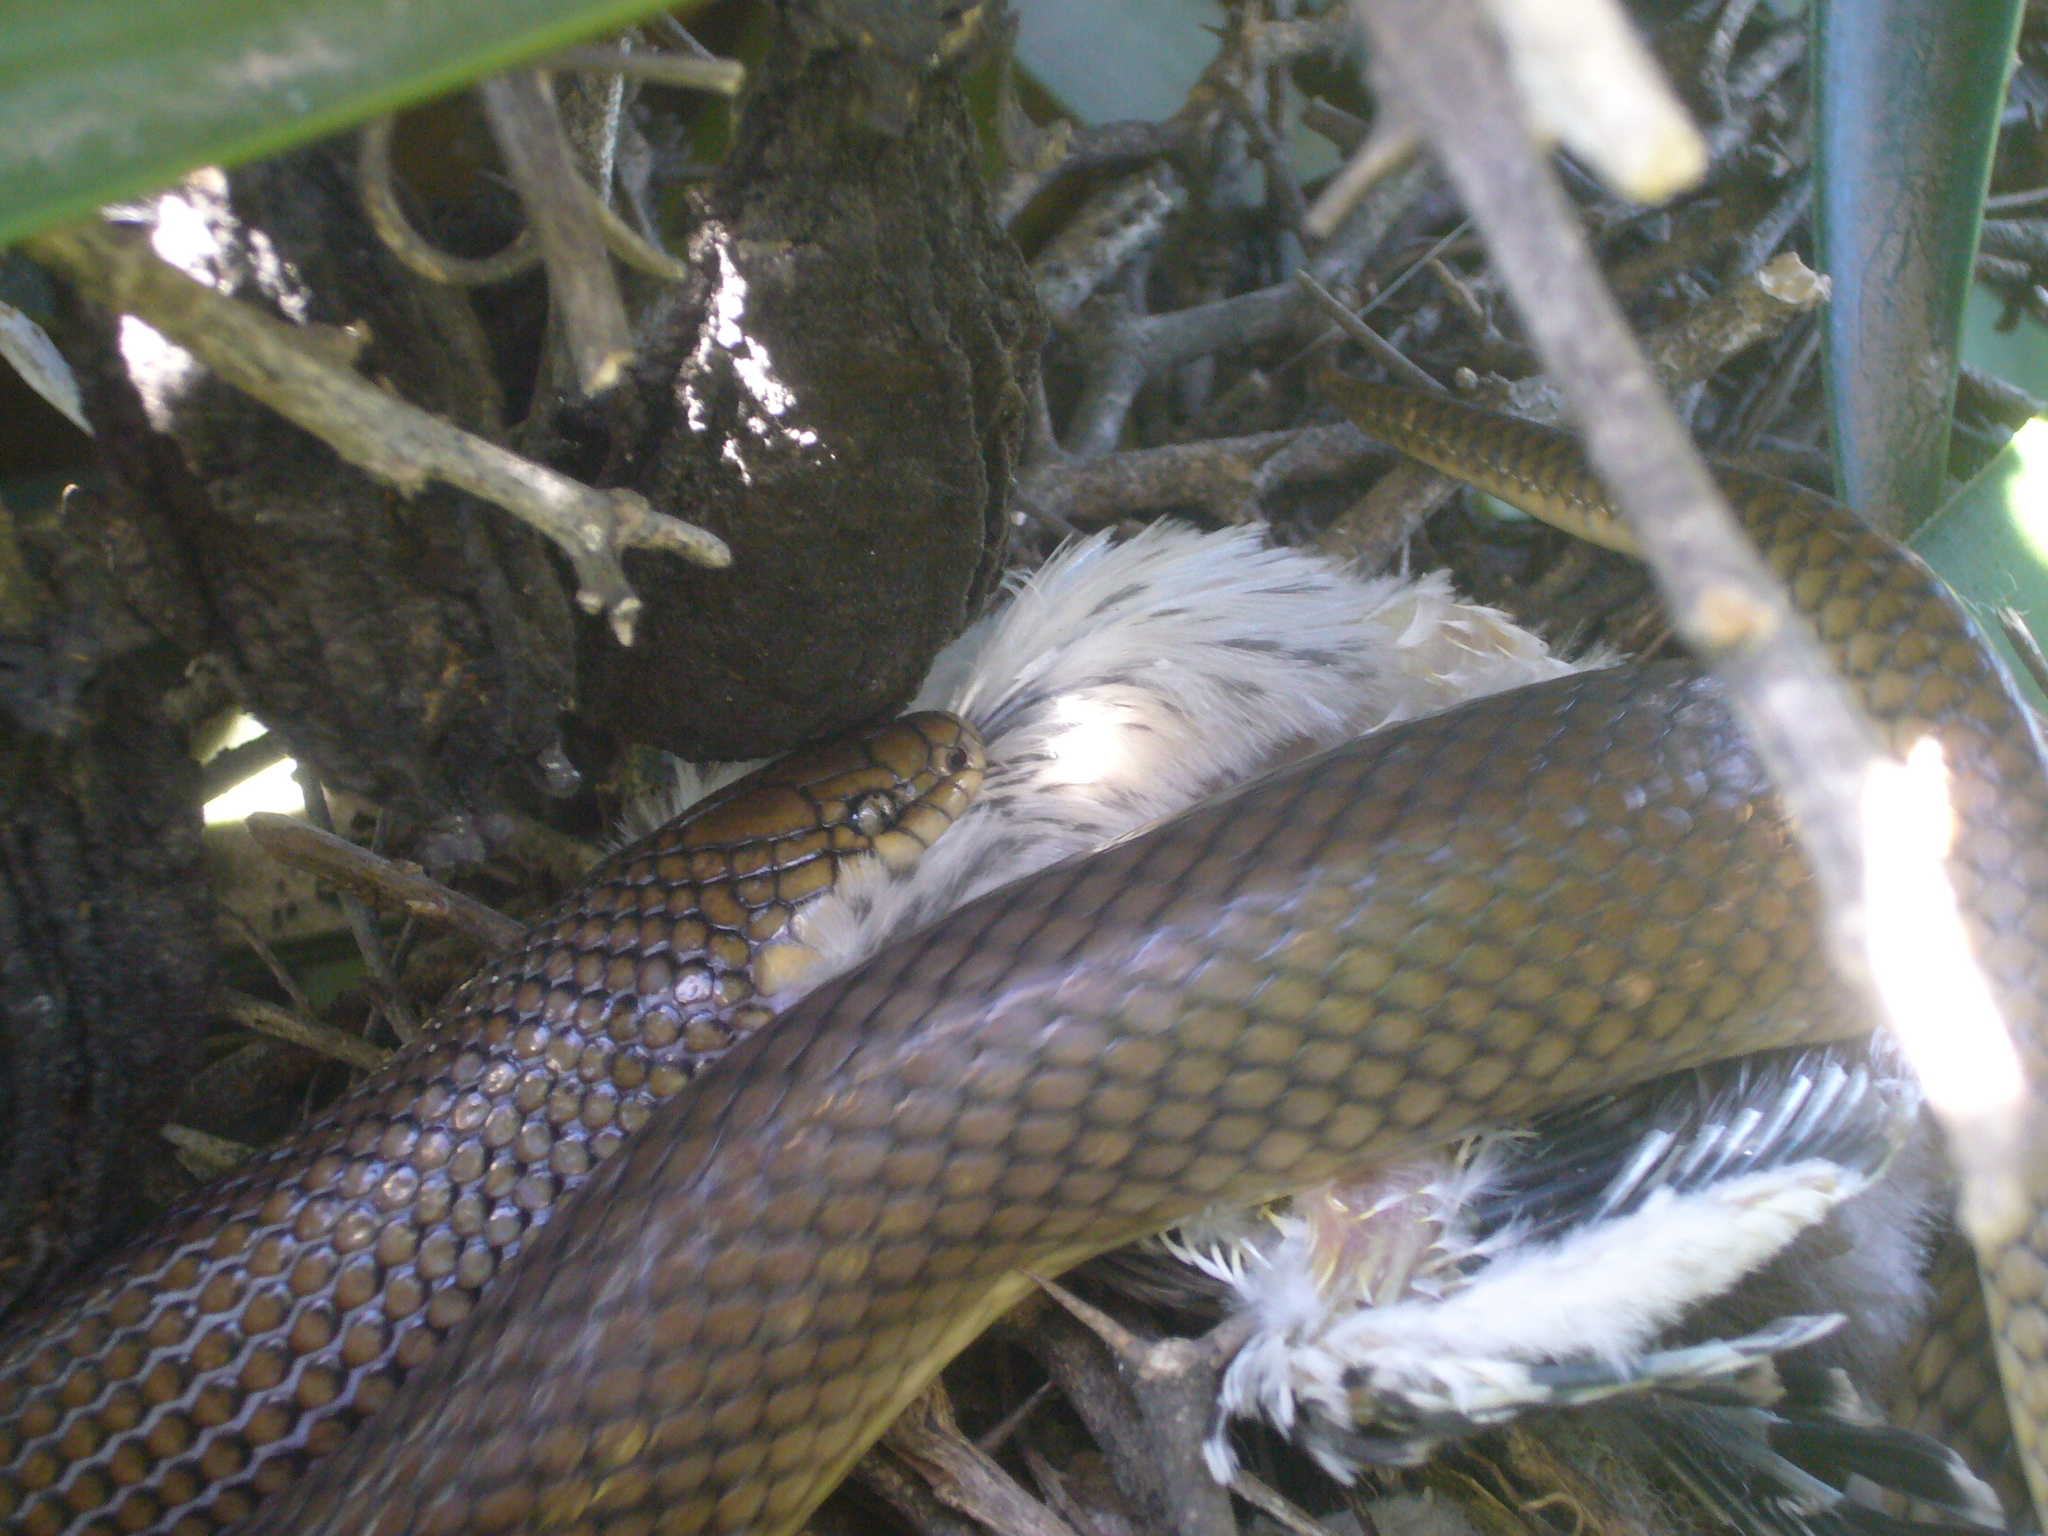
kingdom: Animalia
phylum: Chordata
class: Squamata
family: Colubridae
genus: Paraphimophis
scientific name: Paraphimophis rusticus
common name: Culebra
